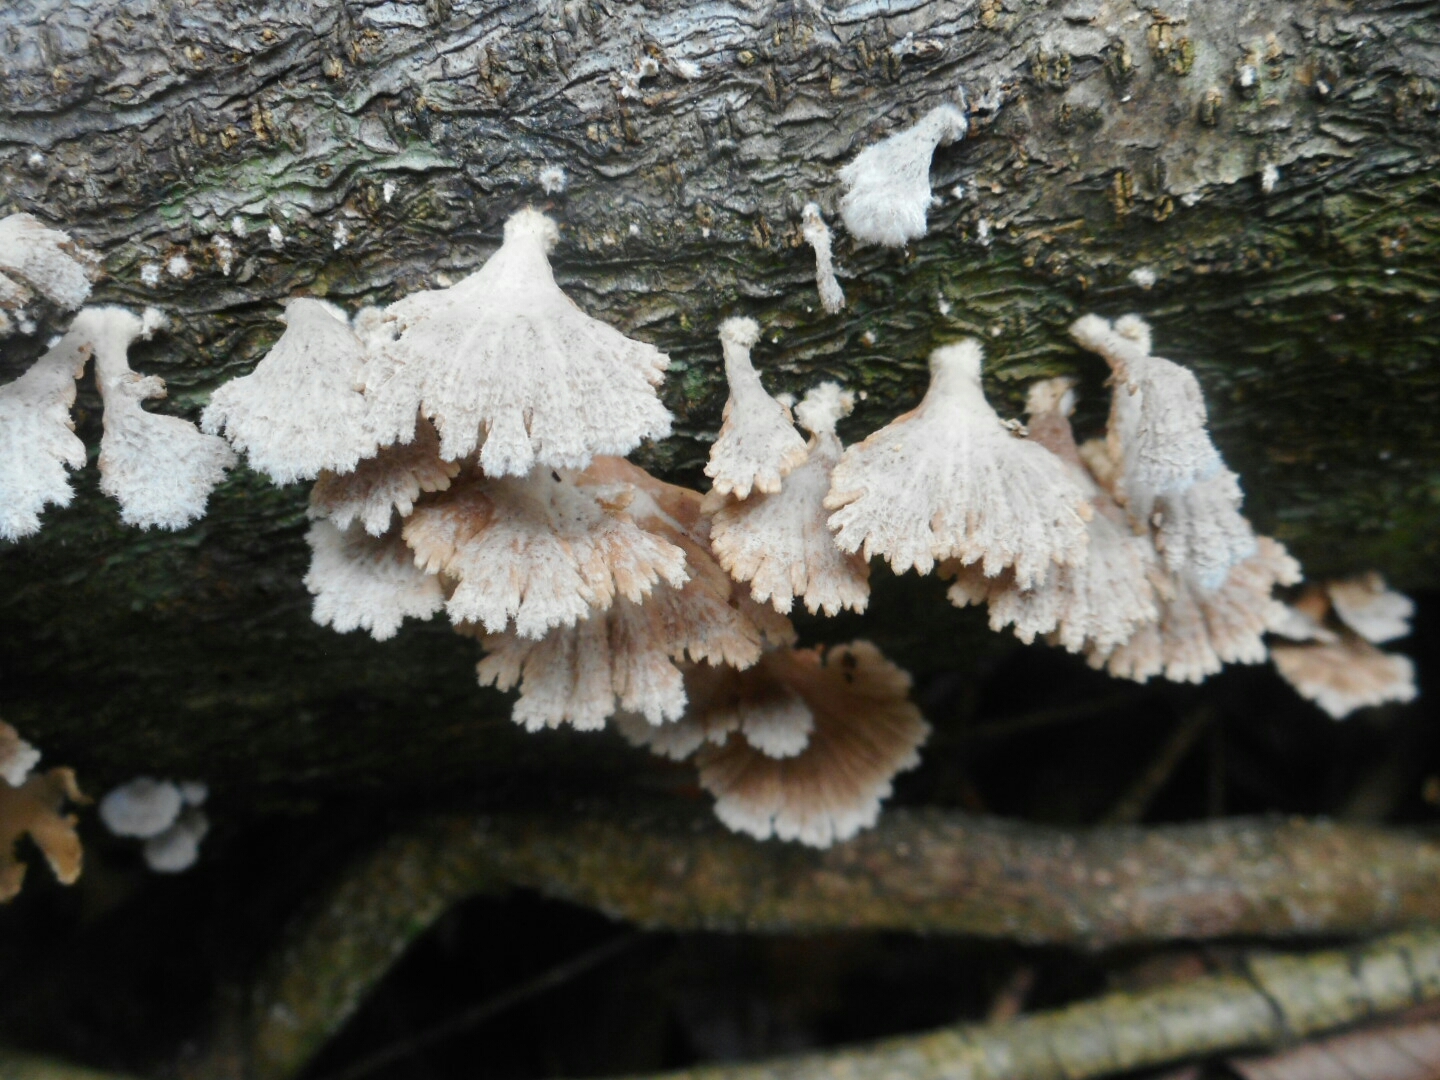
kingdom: Fungi
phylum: Basidiomycota
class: Agaricomycetes
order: Agaricales
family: Schizophyllaceae
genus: Schizophyllum
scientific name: Schizophyllum commune
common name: Common porecrust
